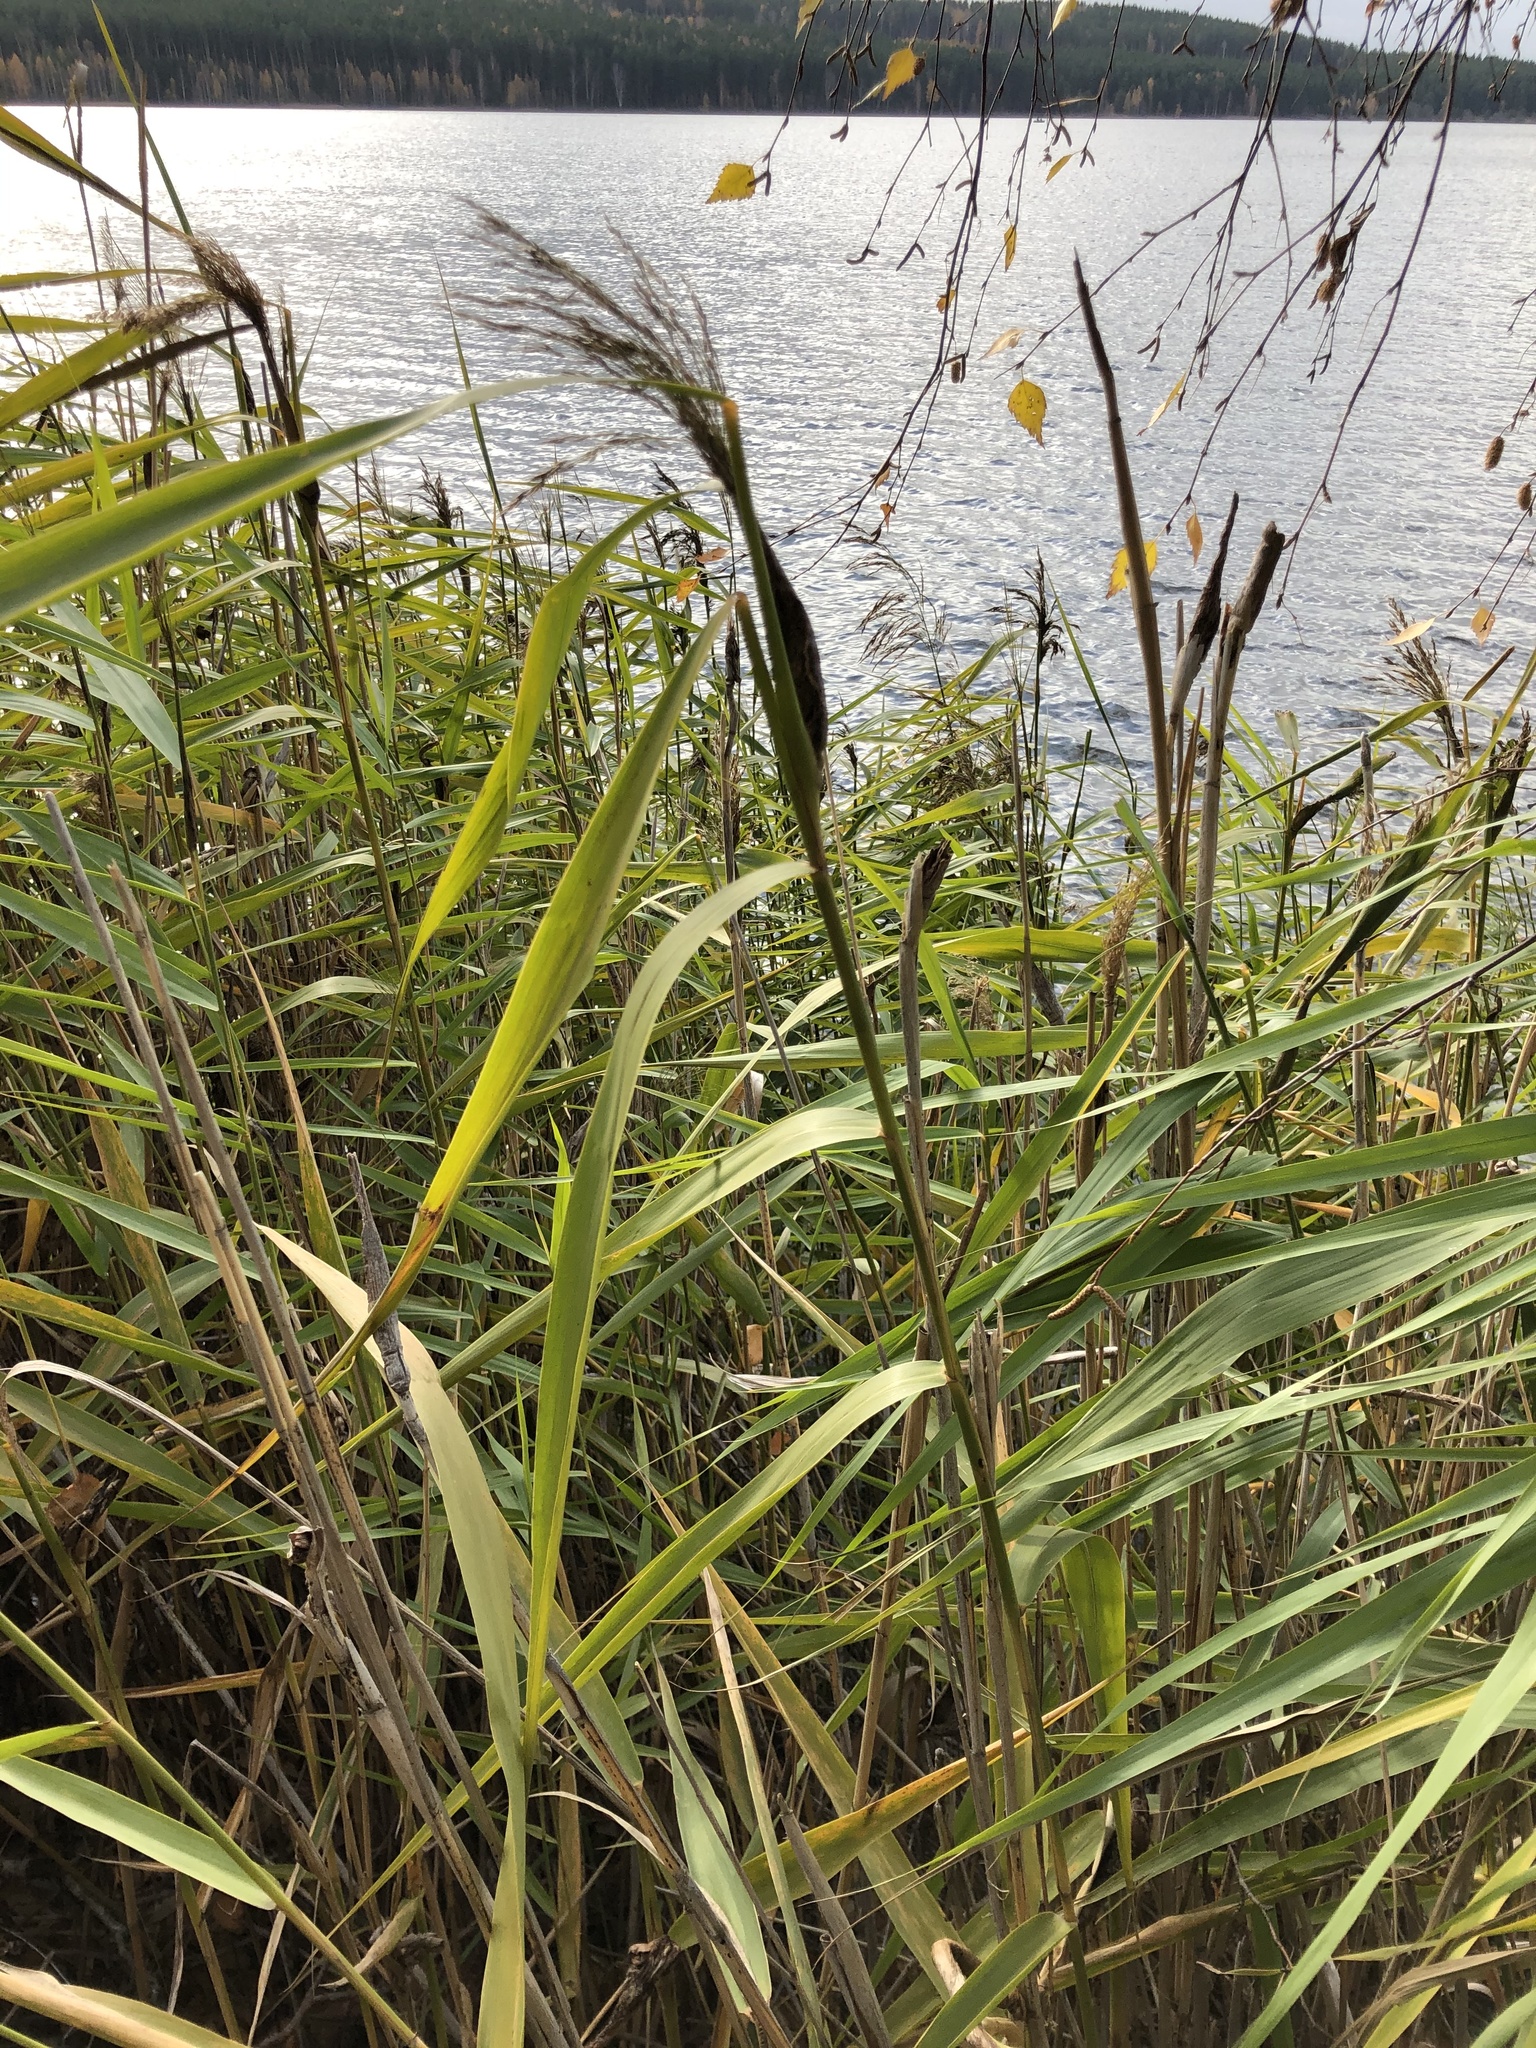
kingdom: Plantae
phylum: Tracheophyta
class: Liliopsida
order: Poales
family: Poaceae
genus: Phragmites
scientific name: Phragmites australis
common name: Common reed
